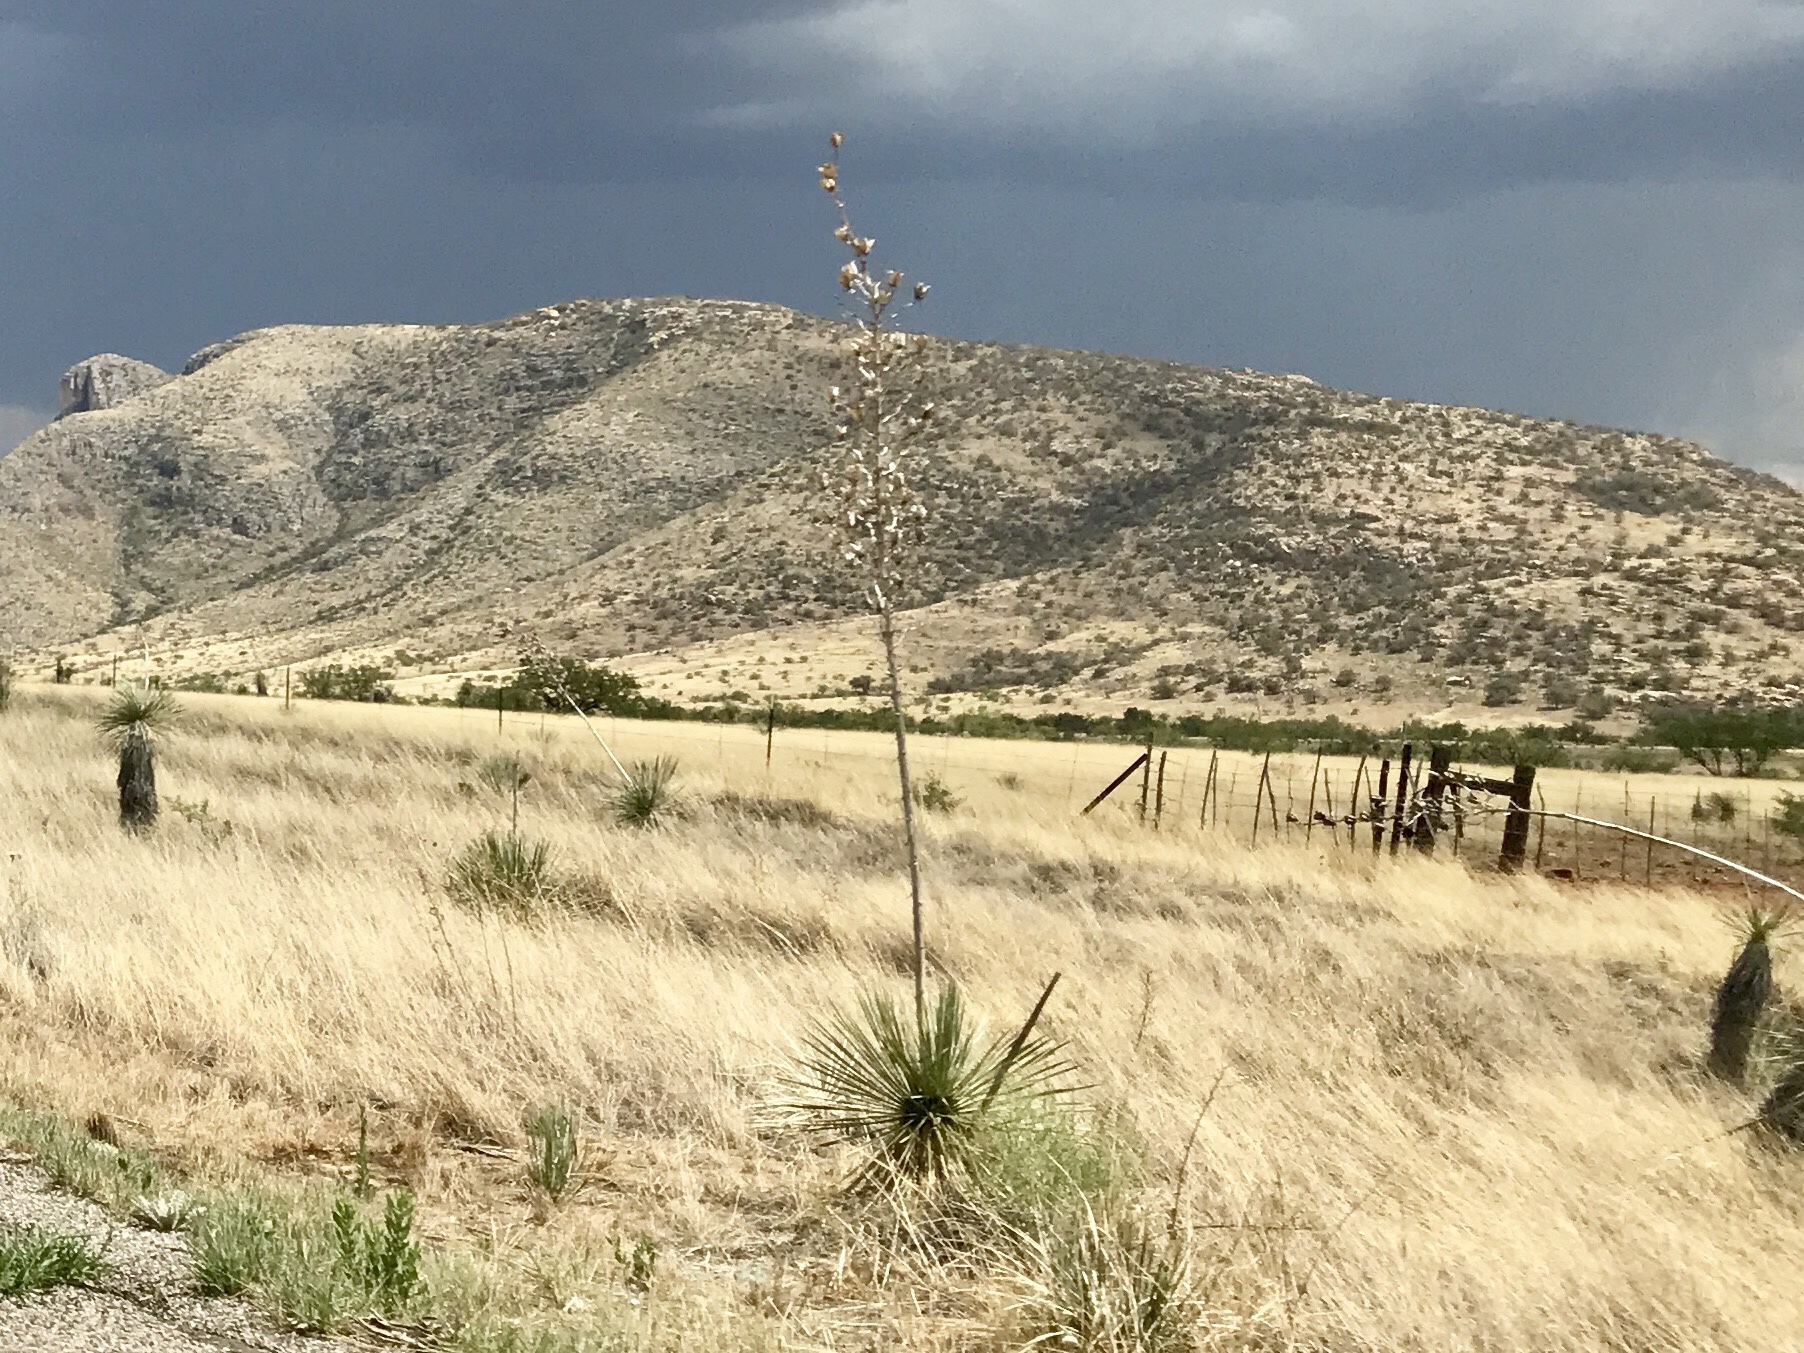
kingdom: Plantae
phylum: Tracheophyta
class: Liliopsida
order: Asparagales
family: Asparagaceae
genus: Yucca
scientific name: Yucca elata
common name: Palmella
